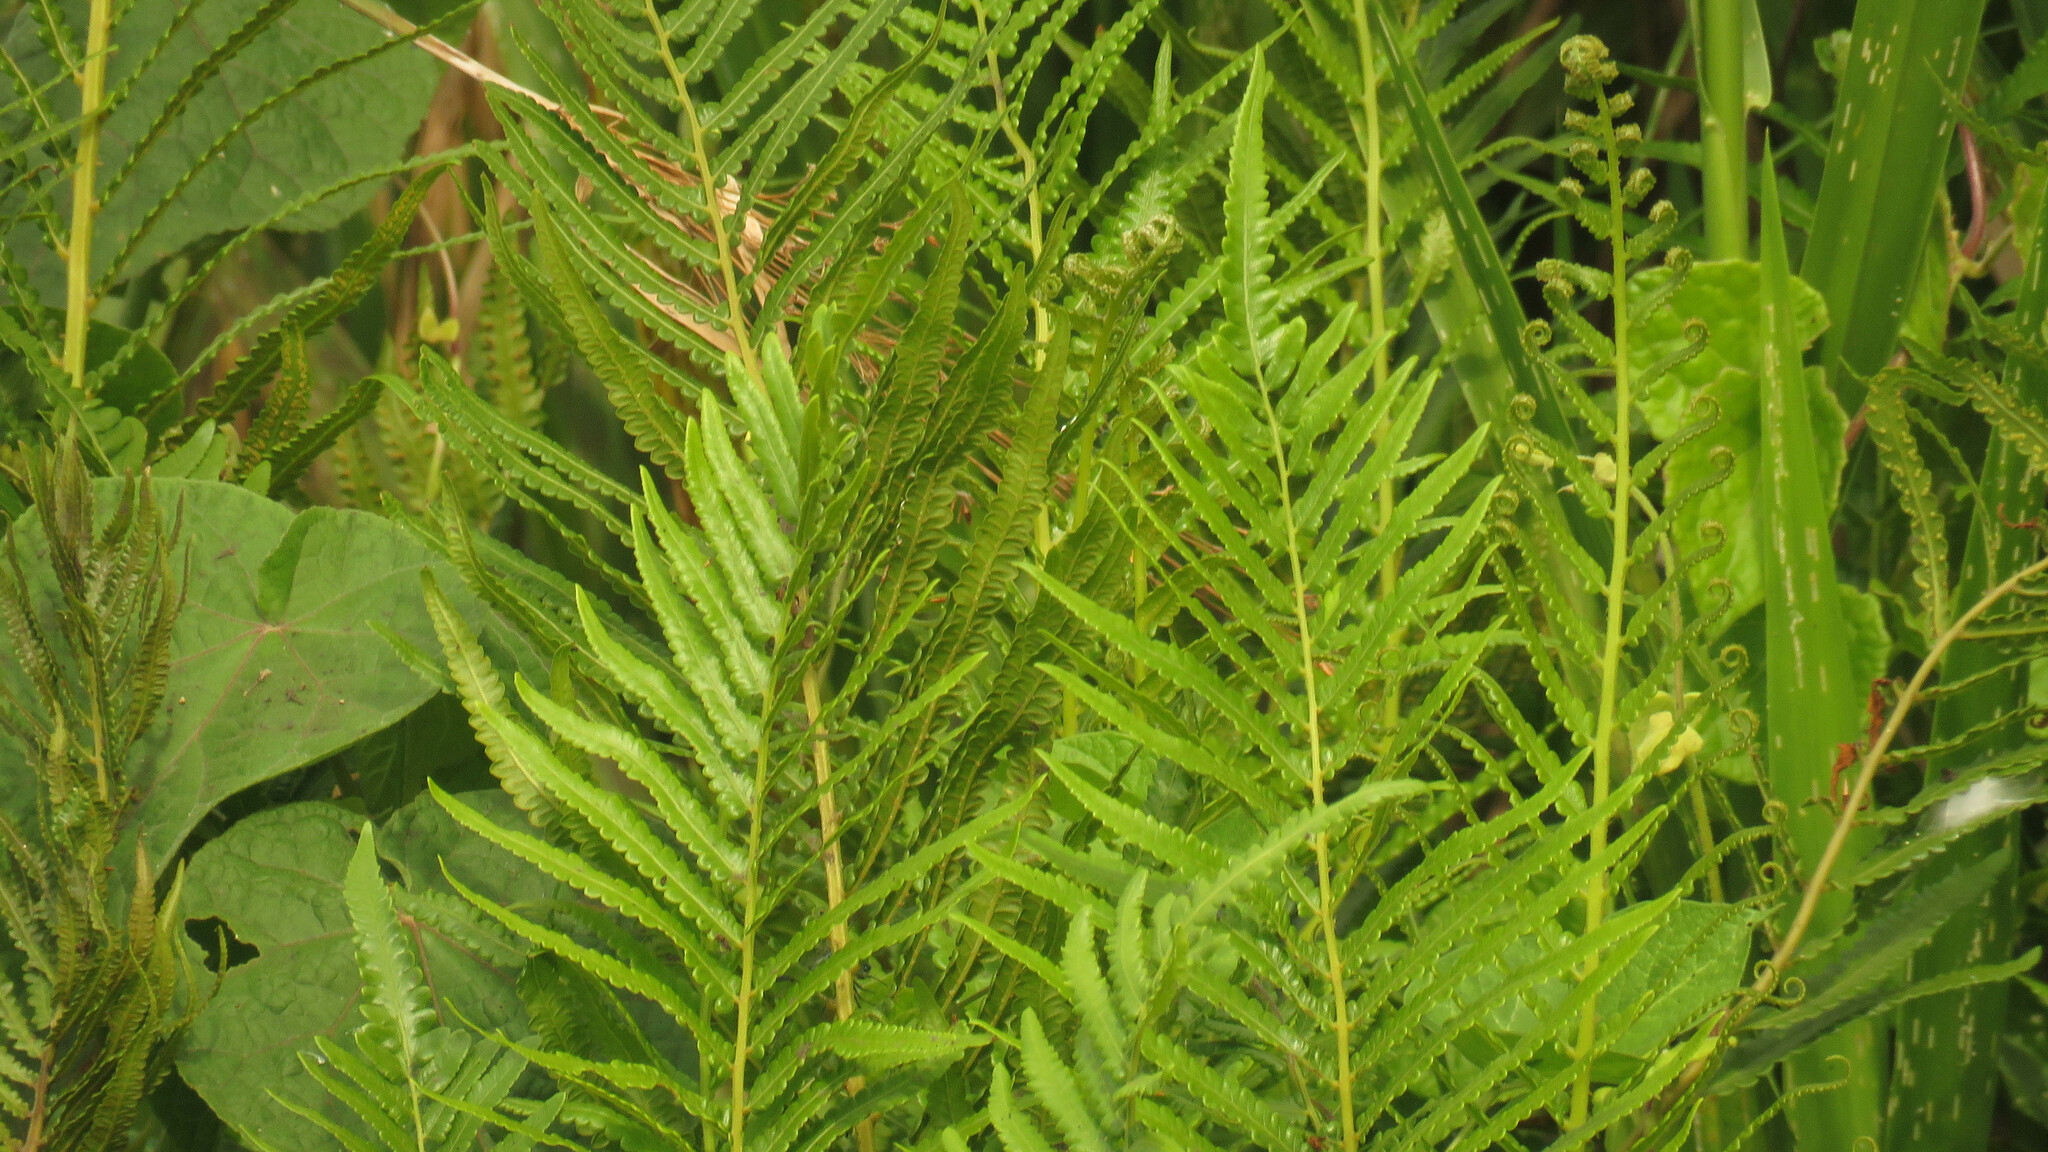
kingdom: Plantae
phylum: Tracheophyta
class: Polypodiopsida
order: Polypodiales
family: Thelypteridaceae
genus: Cyclosorus
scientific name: Cyclosorus interruptus
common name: Neke fern
